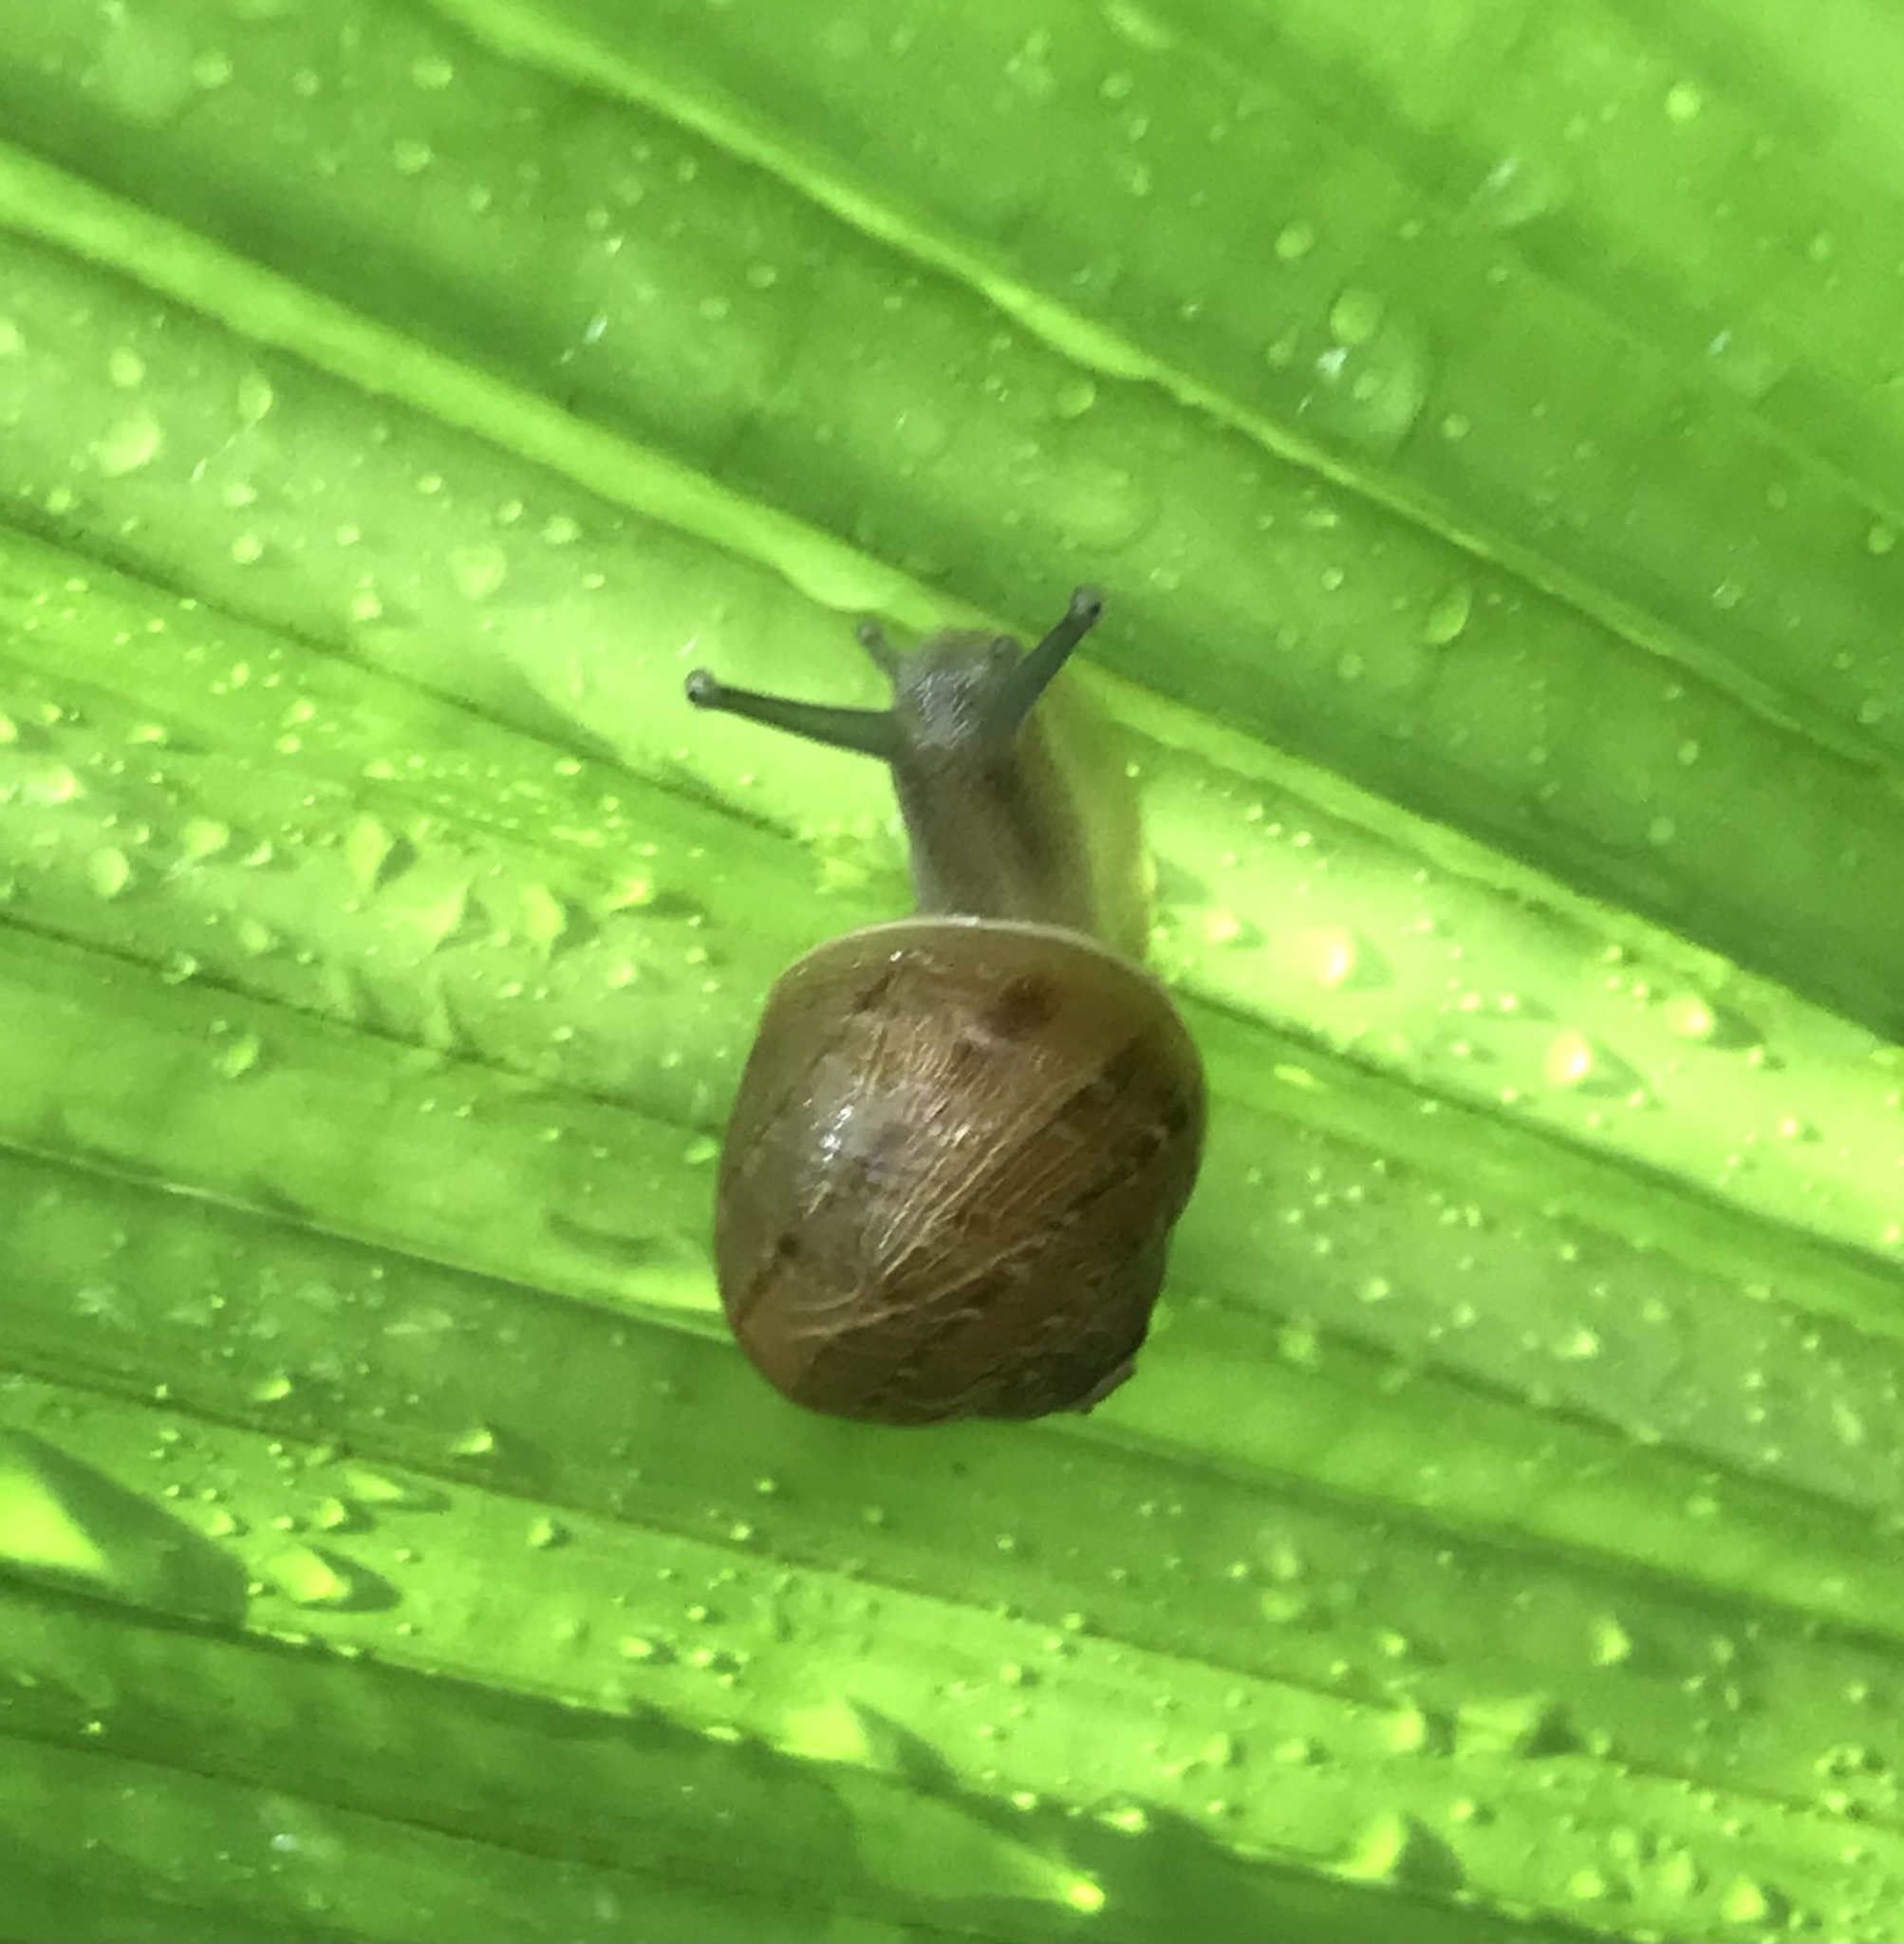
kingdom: Animalia
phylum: Mollusca
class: Gastropoda
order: Stylommatophora
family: Helicidae
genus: Cornu
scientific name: Cornu aspersum
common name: Brown garden snail
